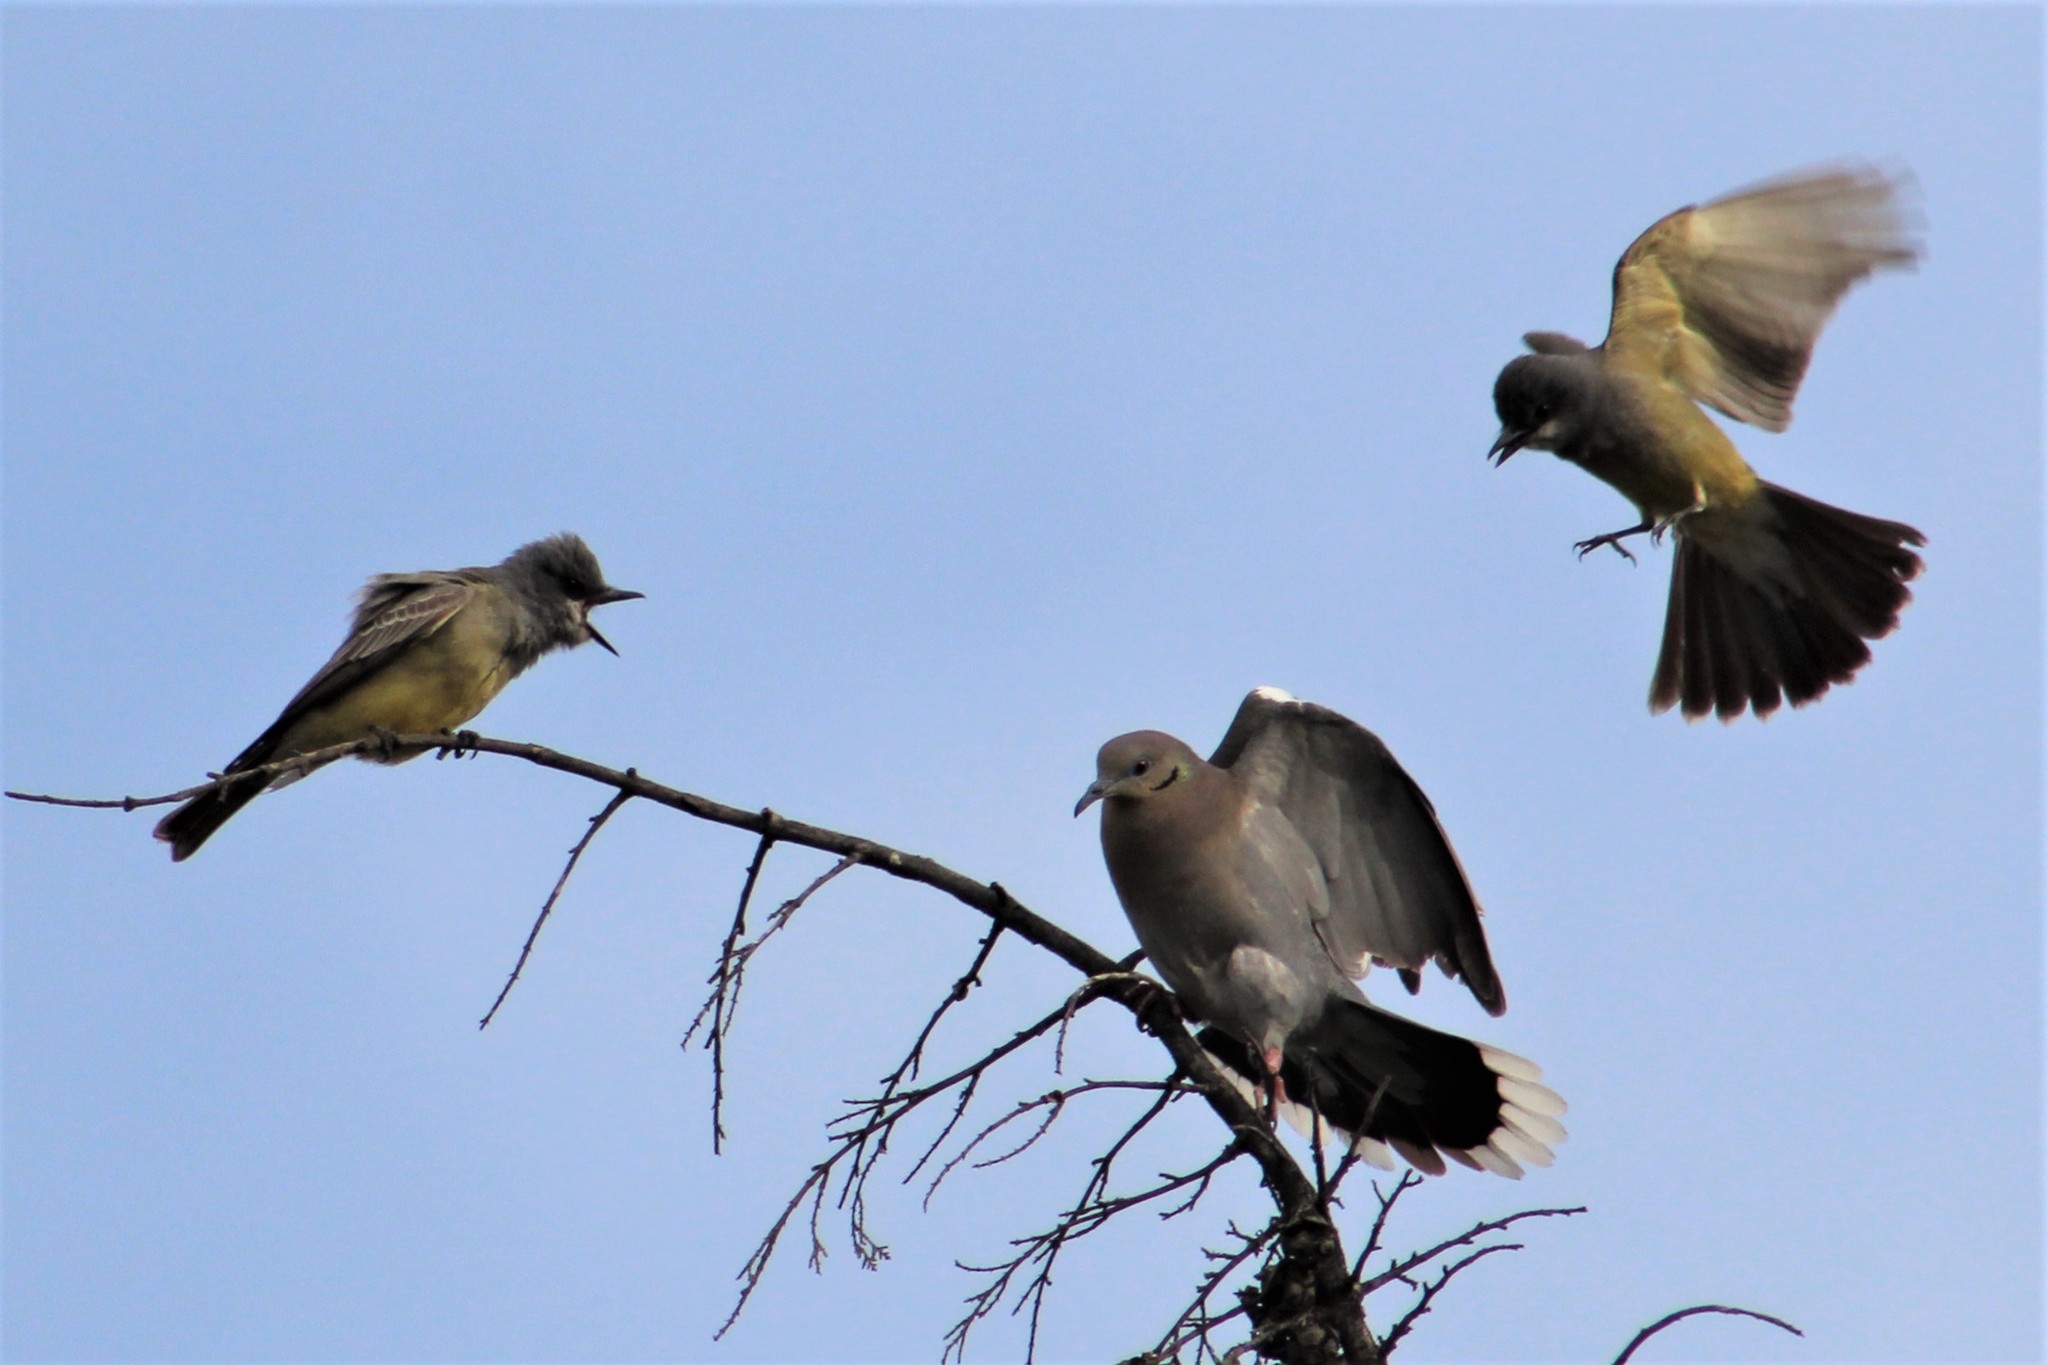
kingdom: Animalia
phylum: Chordata
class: Aves
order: Passeriformes
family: Tyrannidae
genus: Tyrannus
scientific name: Tyrannus vociferans
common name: Cassin's kingbird
